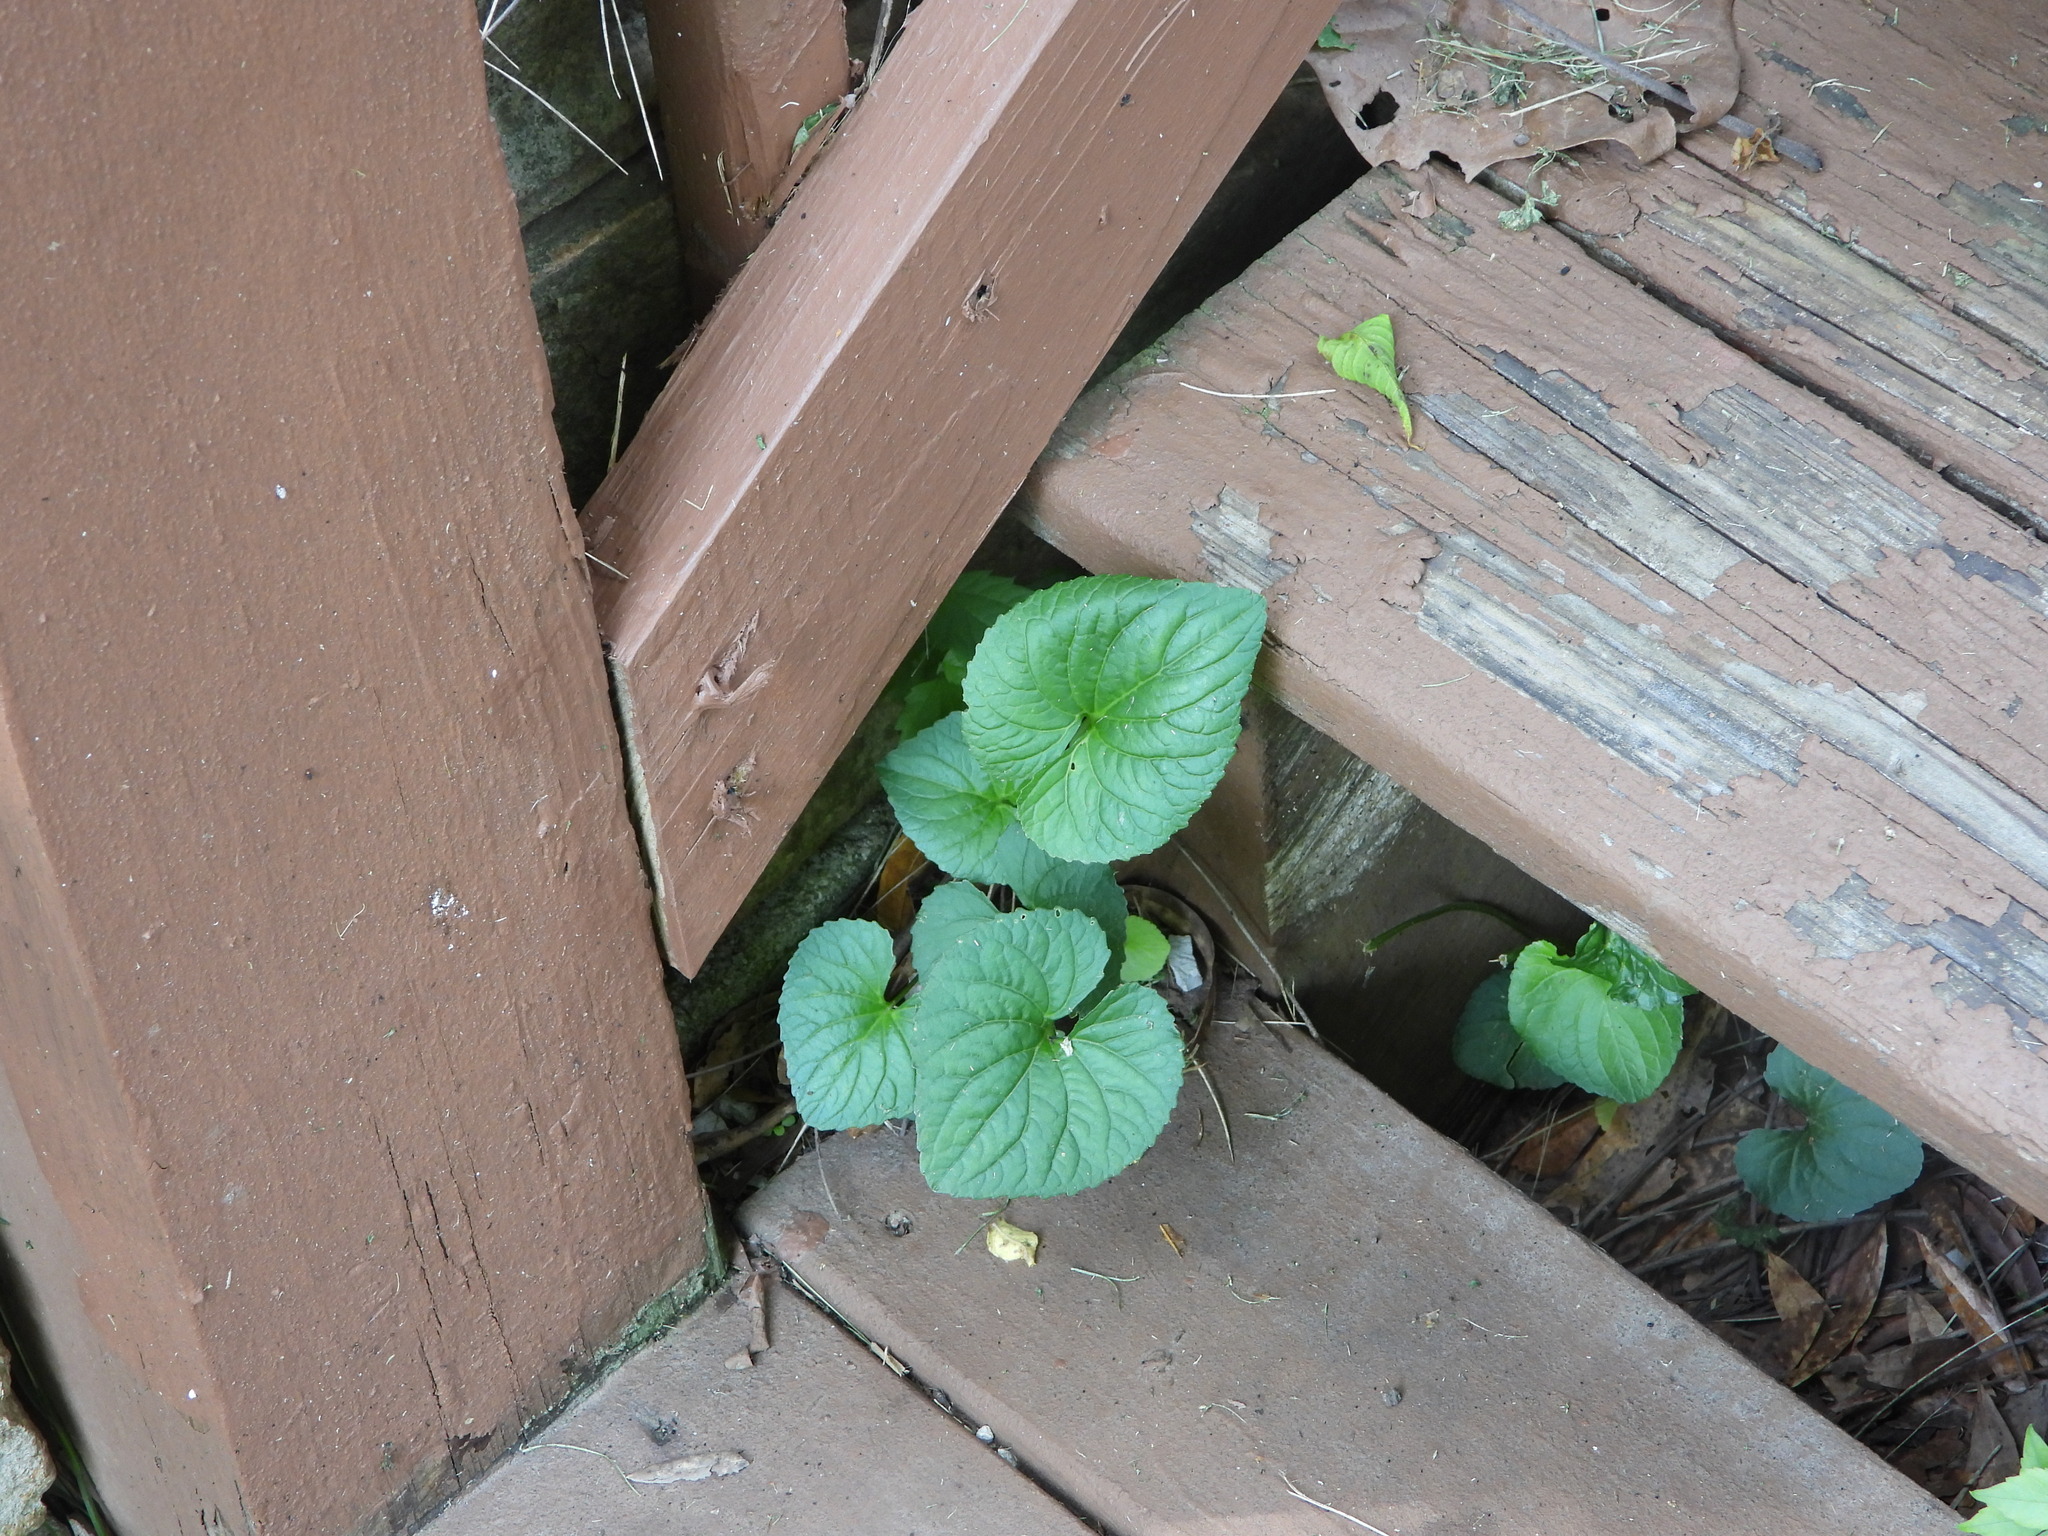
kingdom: Plantae
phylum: Tracheophyta
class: Magnoliopsida
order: Malpighiales
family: Violaceae
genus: Viola
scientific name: Viola sororia
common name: Dooryard violet
